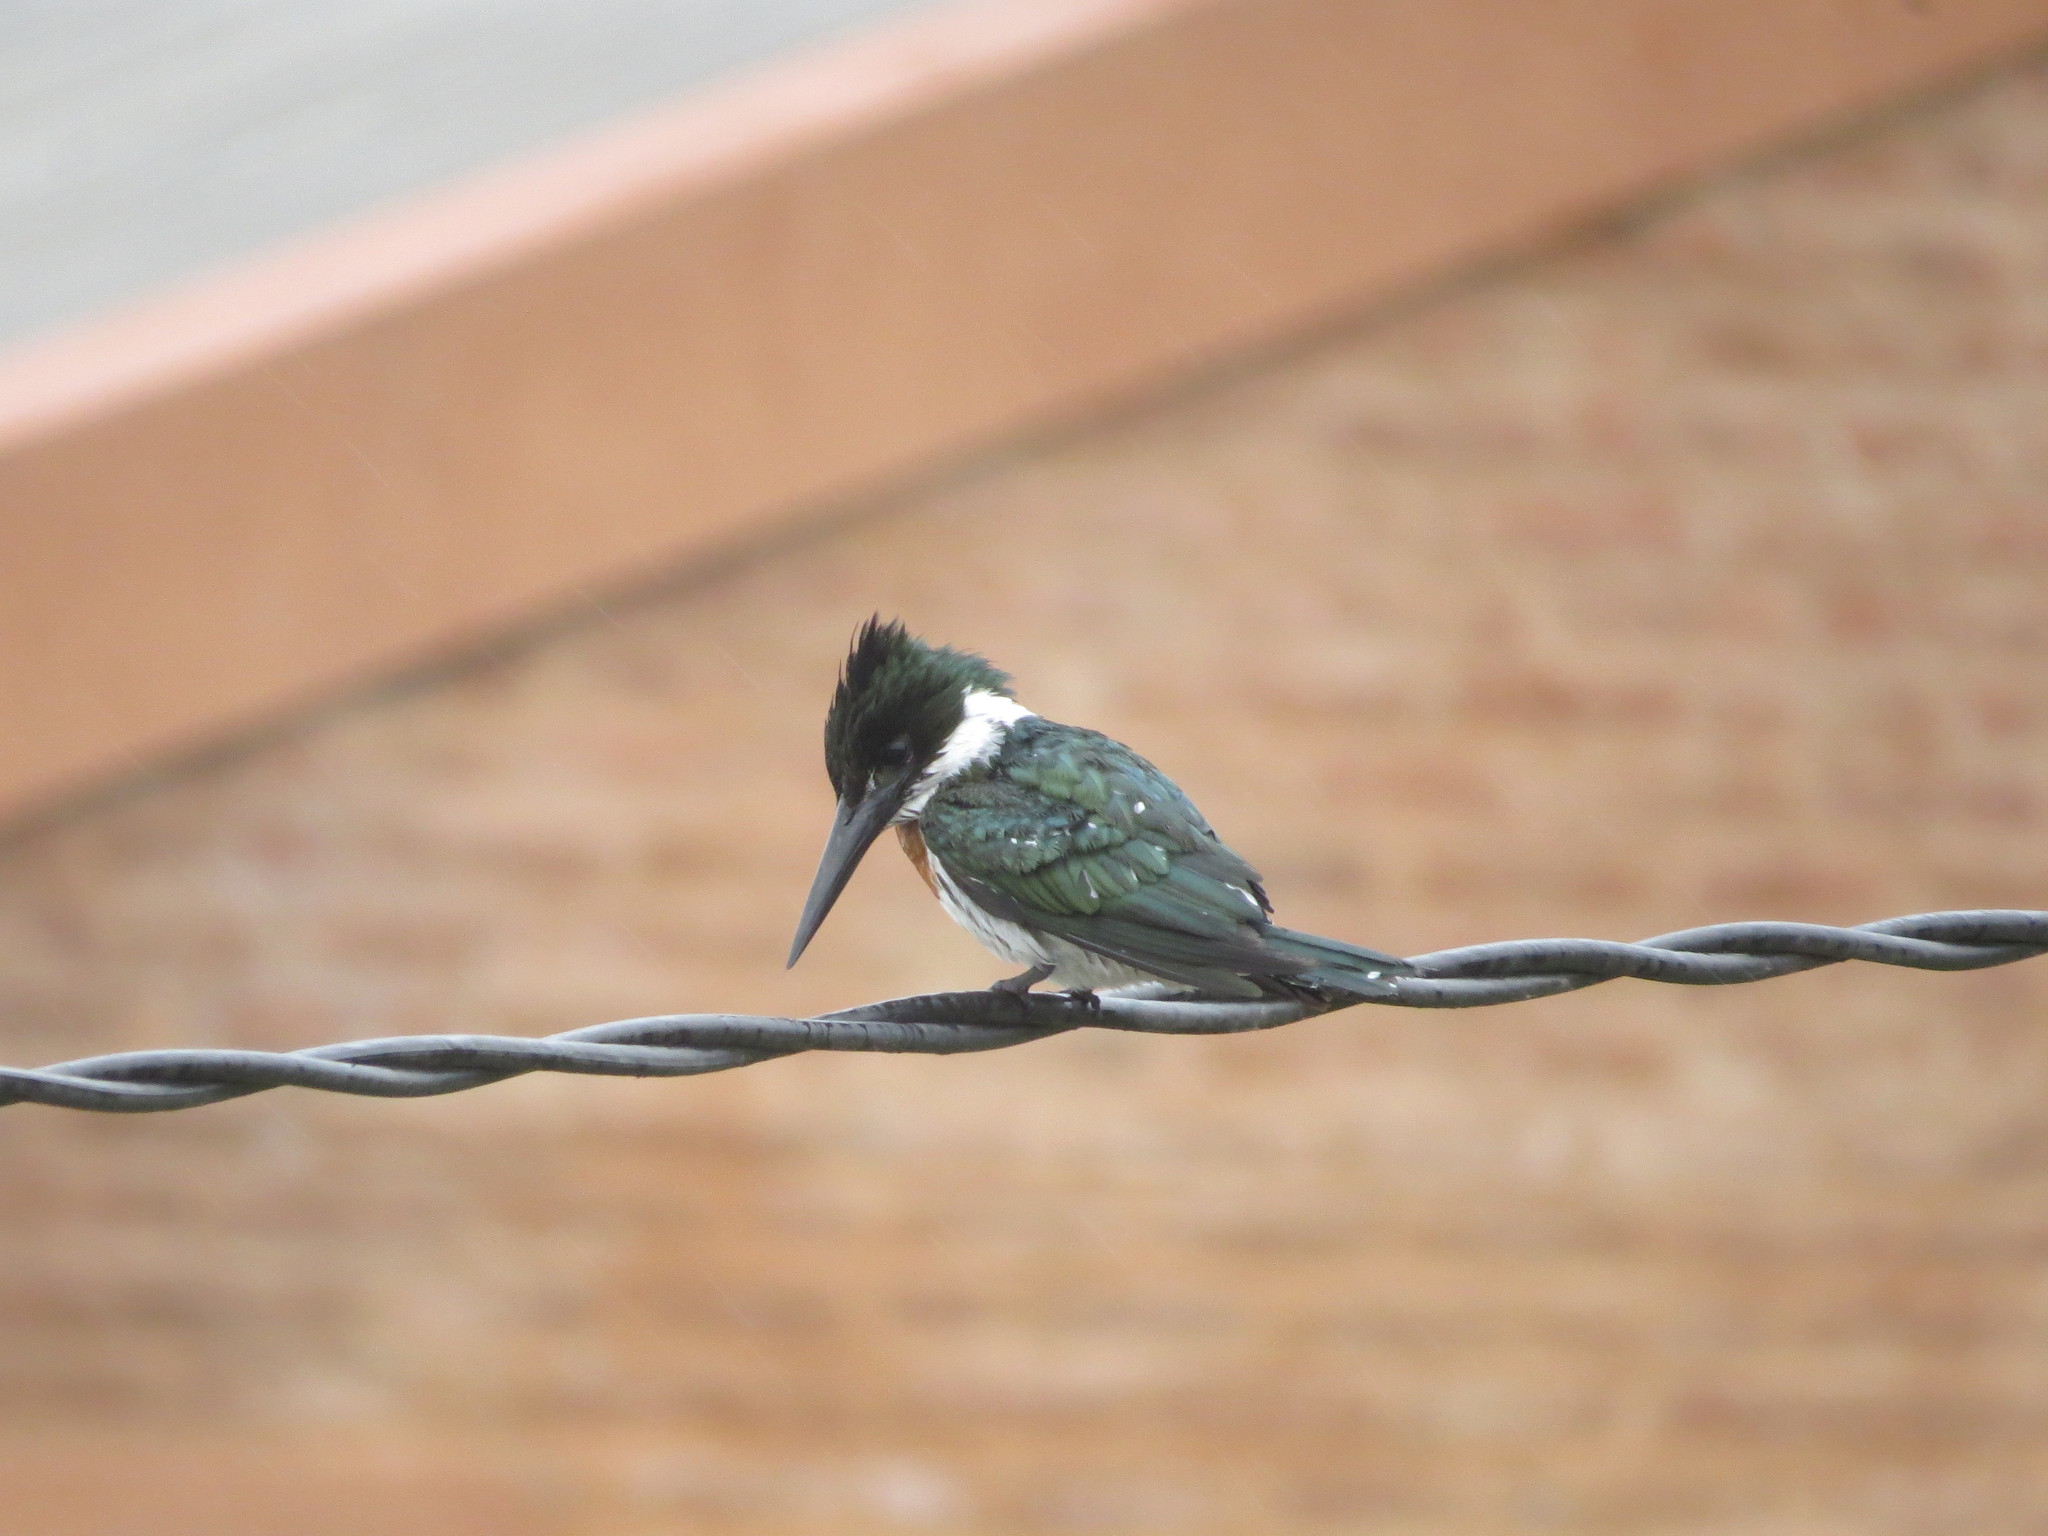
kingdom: Animalia
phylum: Chordata
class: Aves
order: Coraciiformes
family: Alcedinidae
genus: Chloroceryle
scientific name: Chloroceryle amazona
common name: Amazon kingfisher
